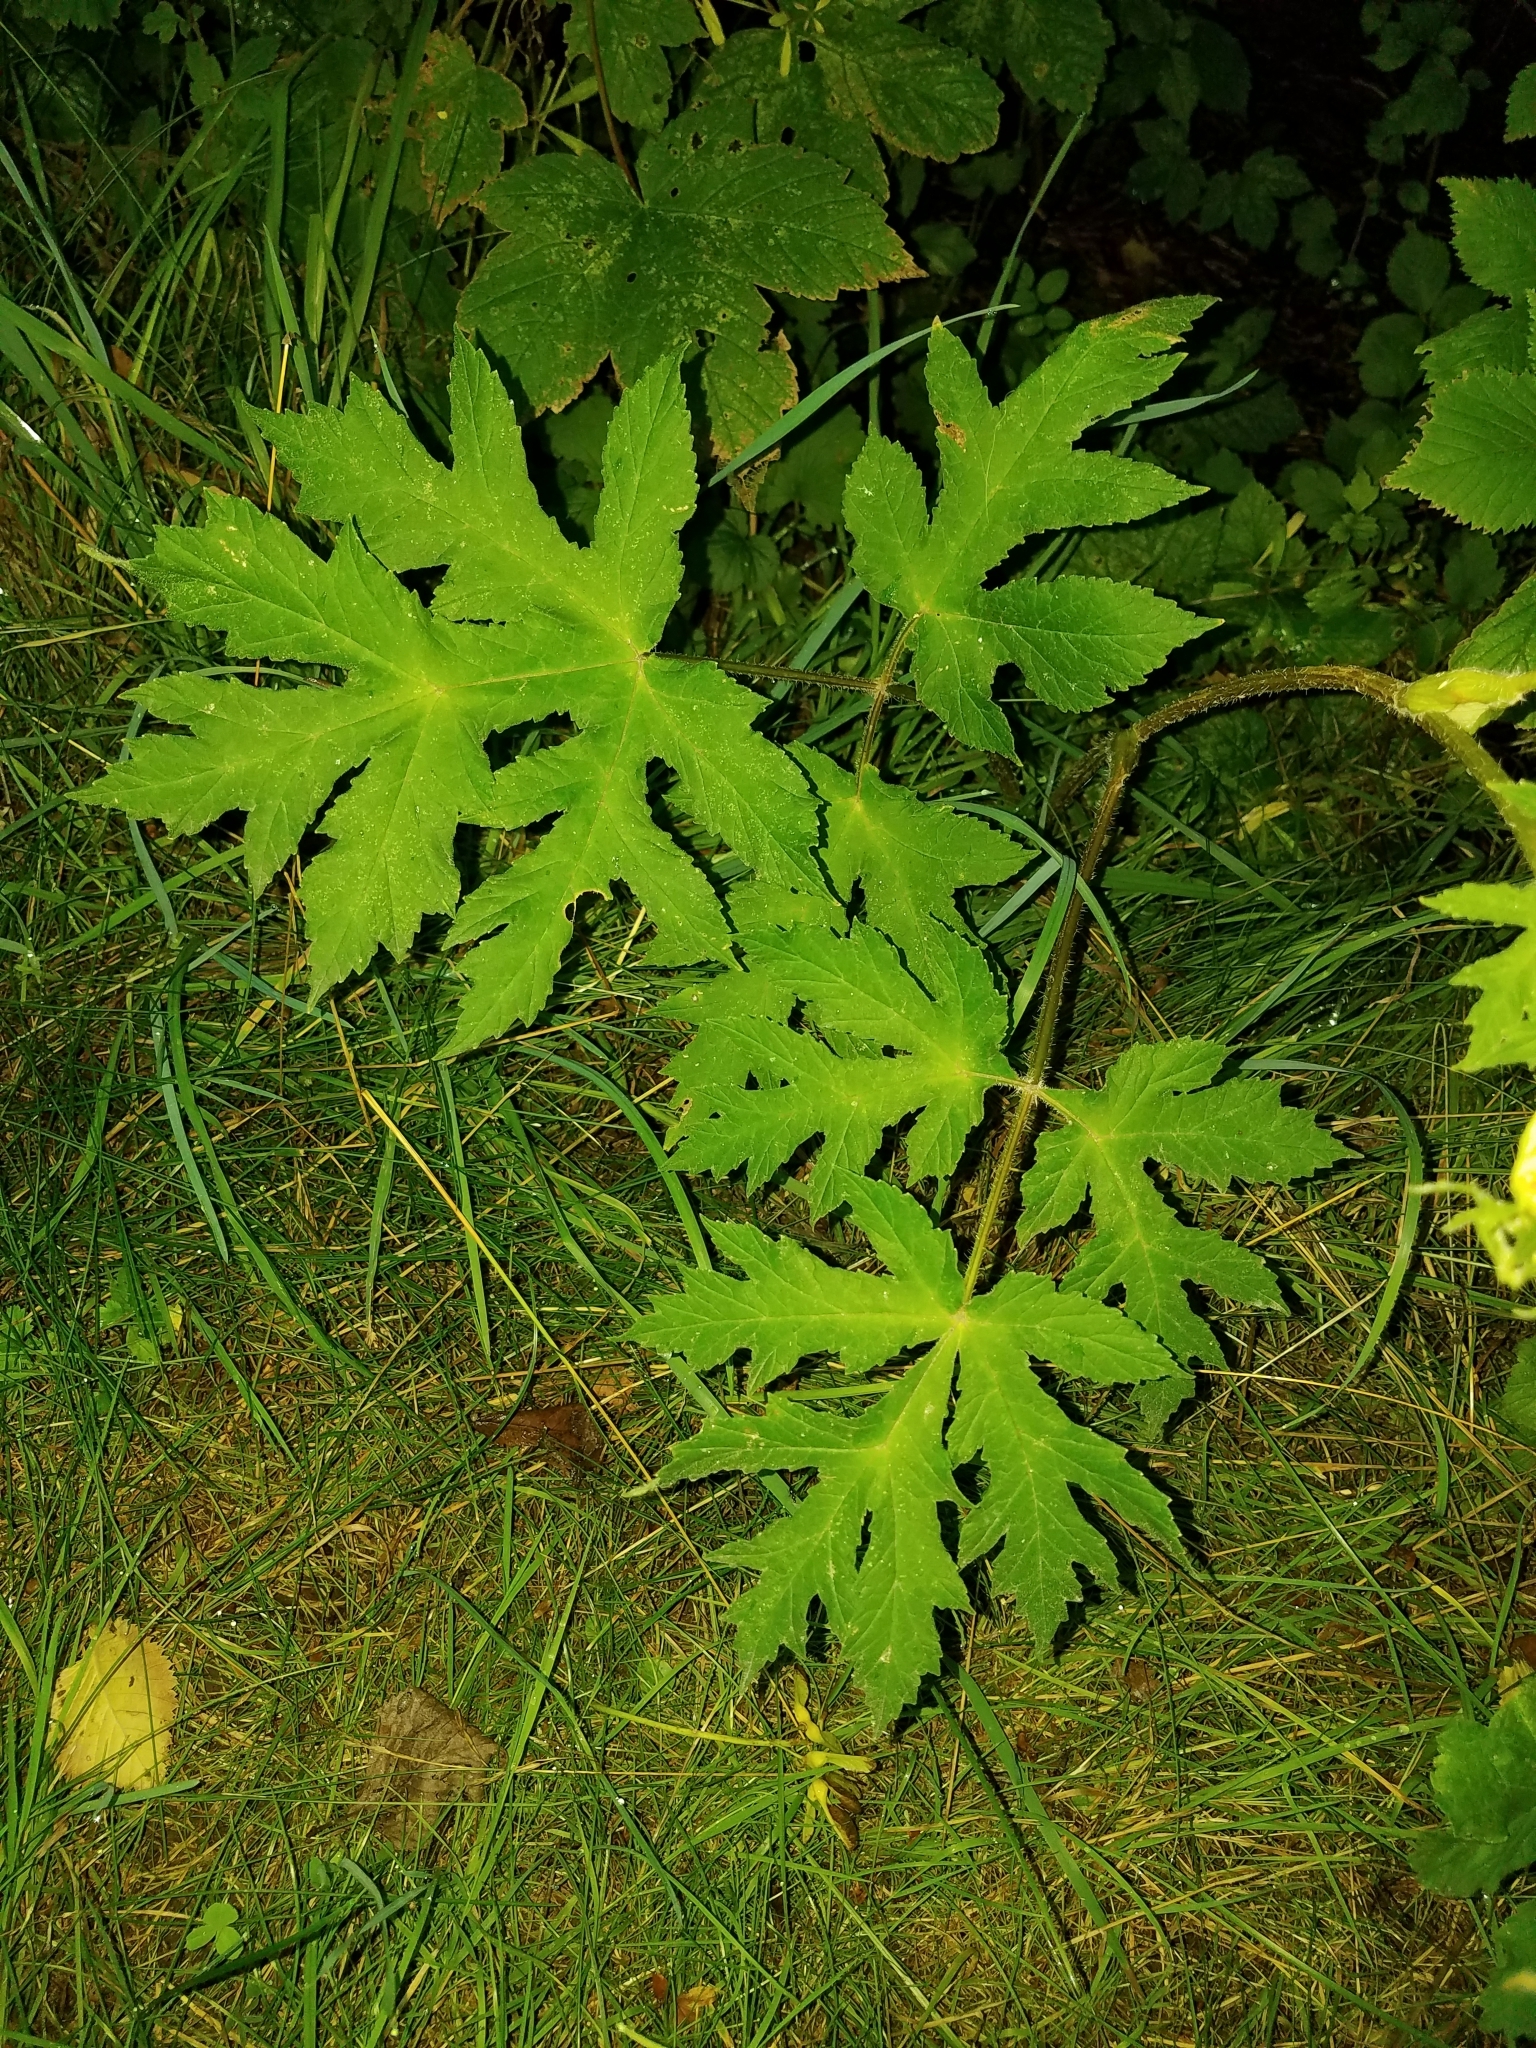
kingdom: Plantae
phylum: Tracheophyta
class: Magnoliopsida
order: Apiales
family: Apiaceae
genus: Heracleum
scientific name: Heracleum mantegazzianum
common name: Giant hogweed
